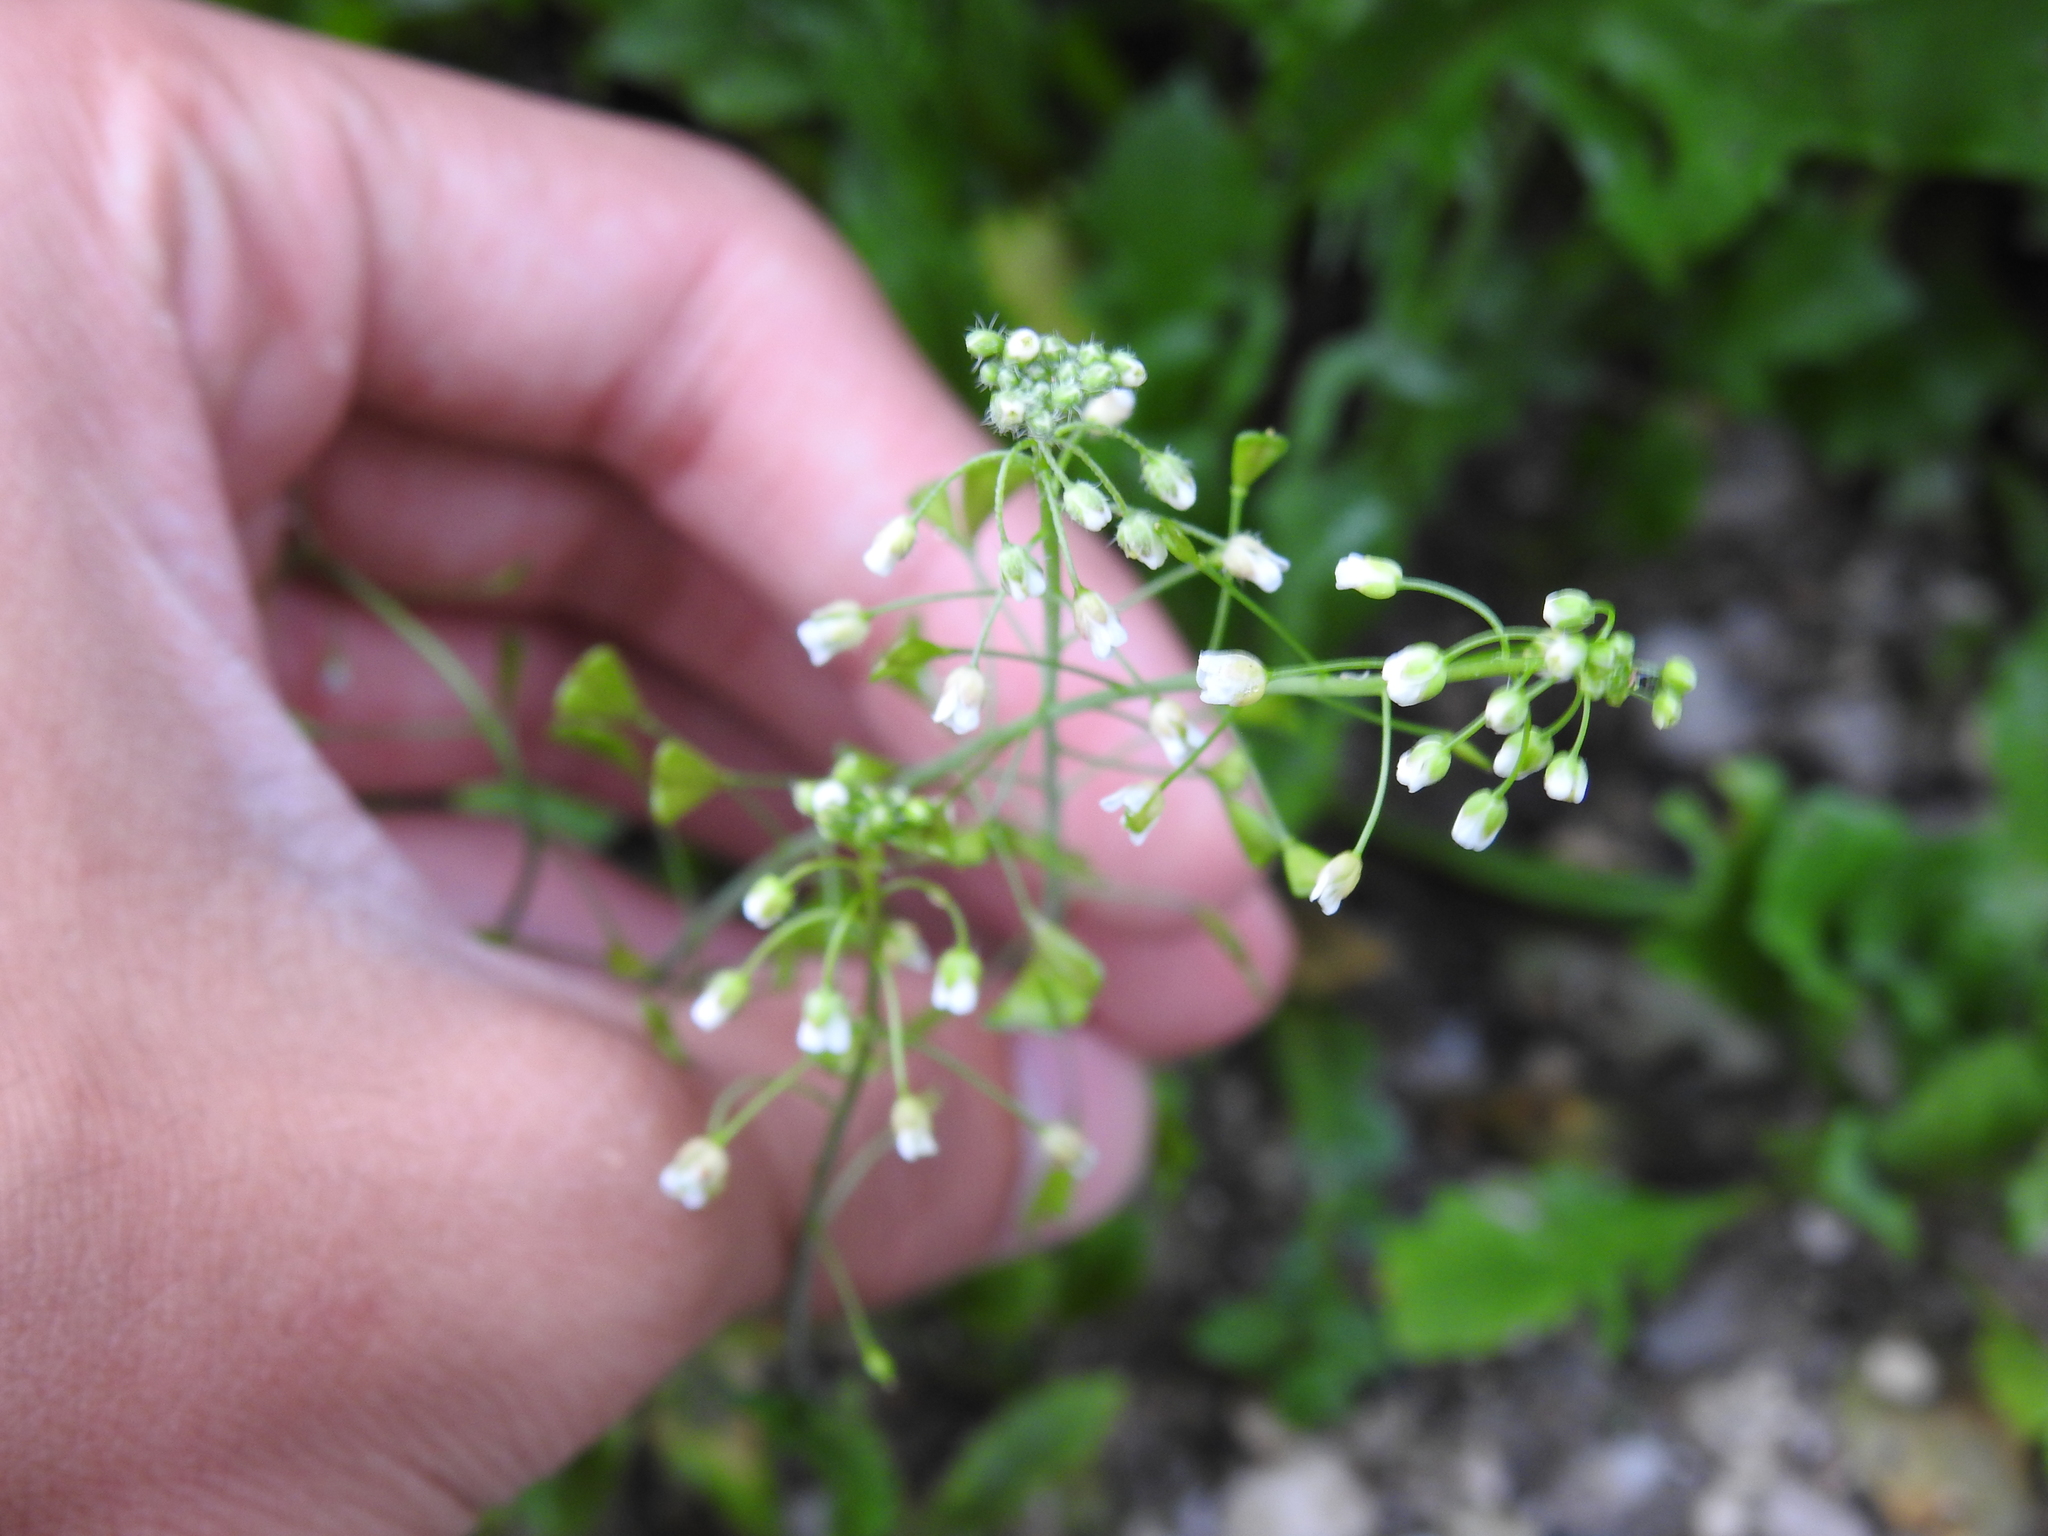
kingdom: Plantae
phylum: Tracheophyta
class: Magnoliopsida
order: Brassicales
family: Brassicaceae
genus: Capsella
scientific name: Capsella bursa-pastoris
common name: Shepherd's purse
